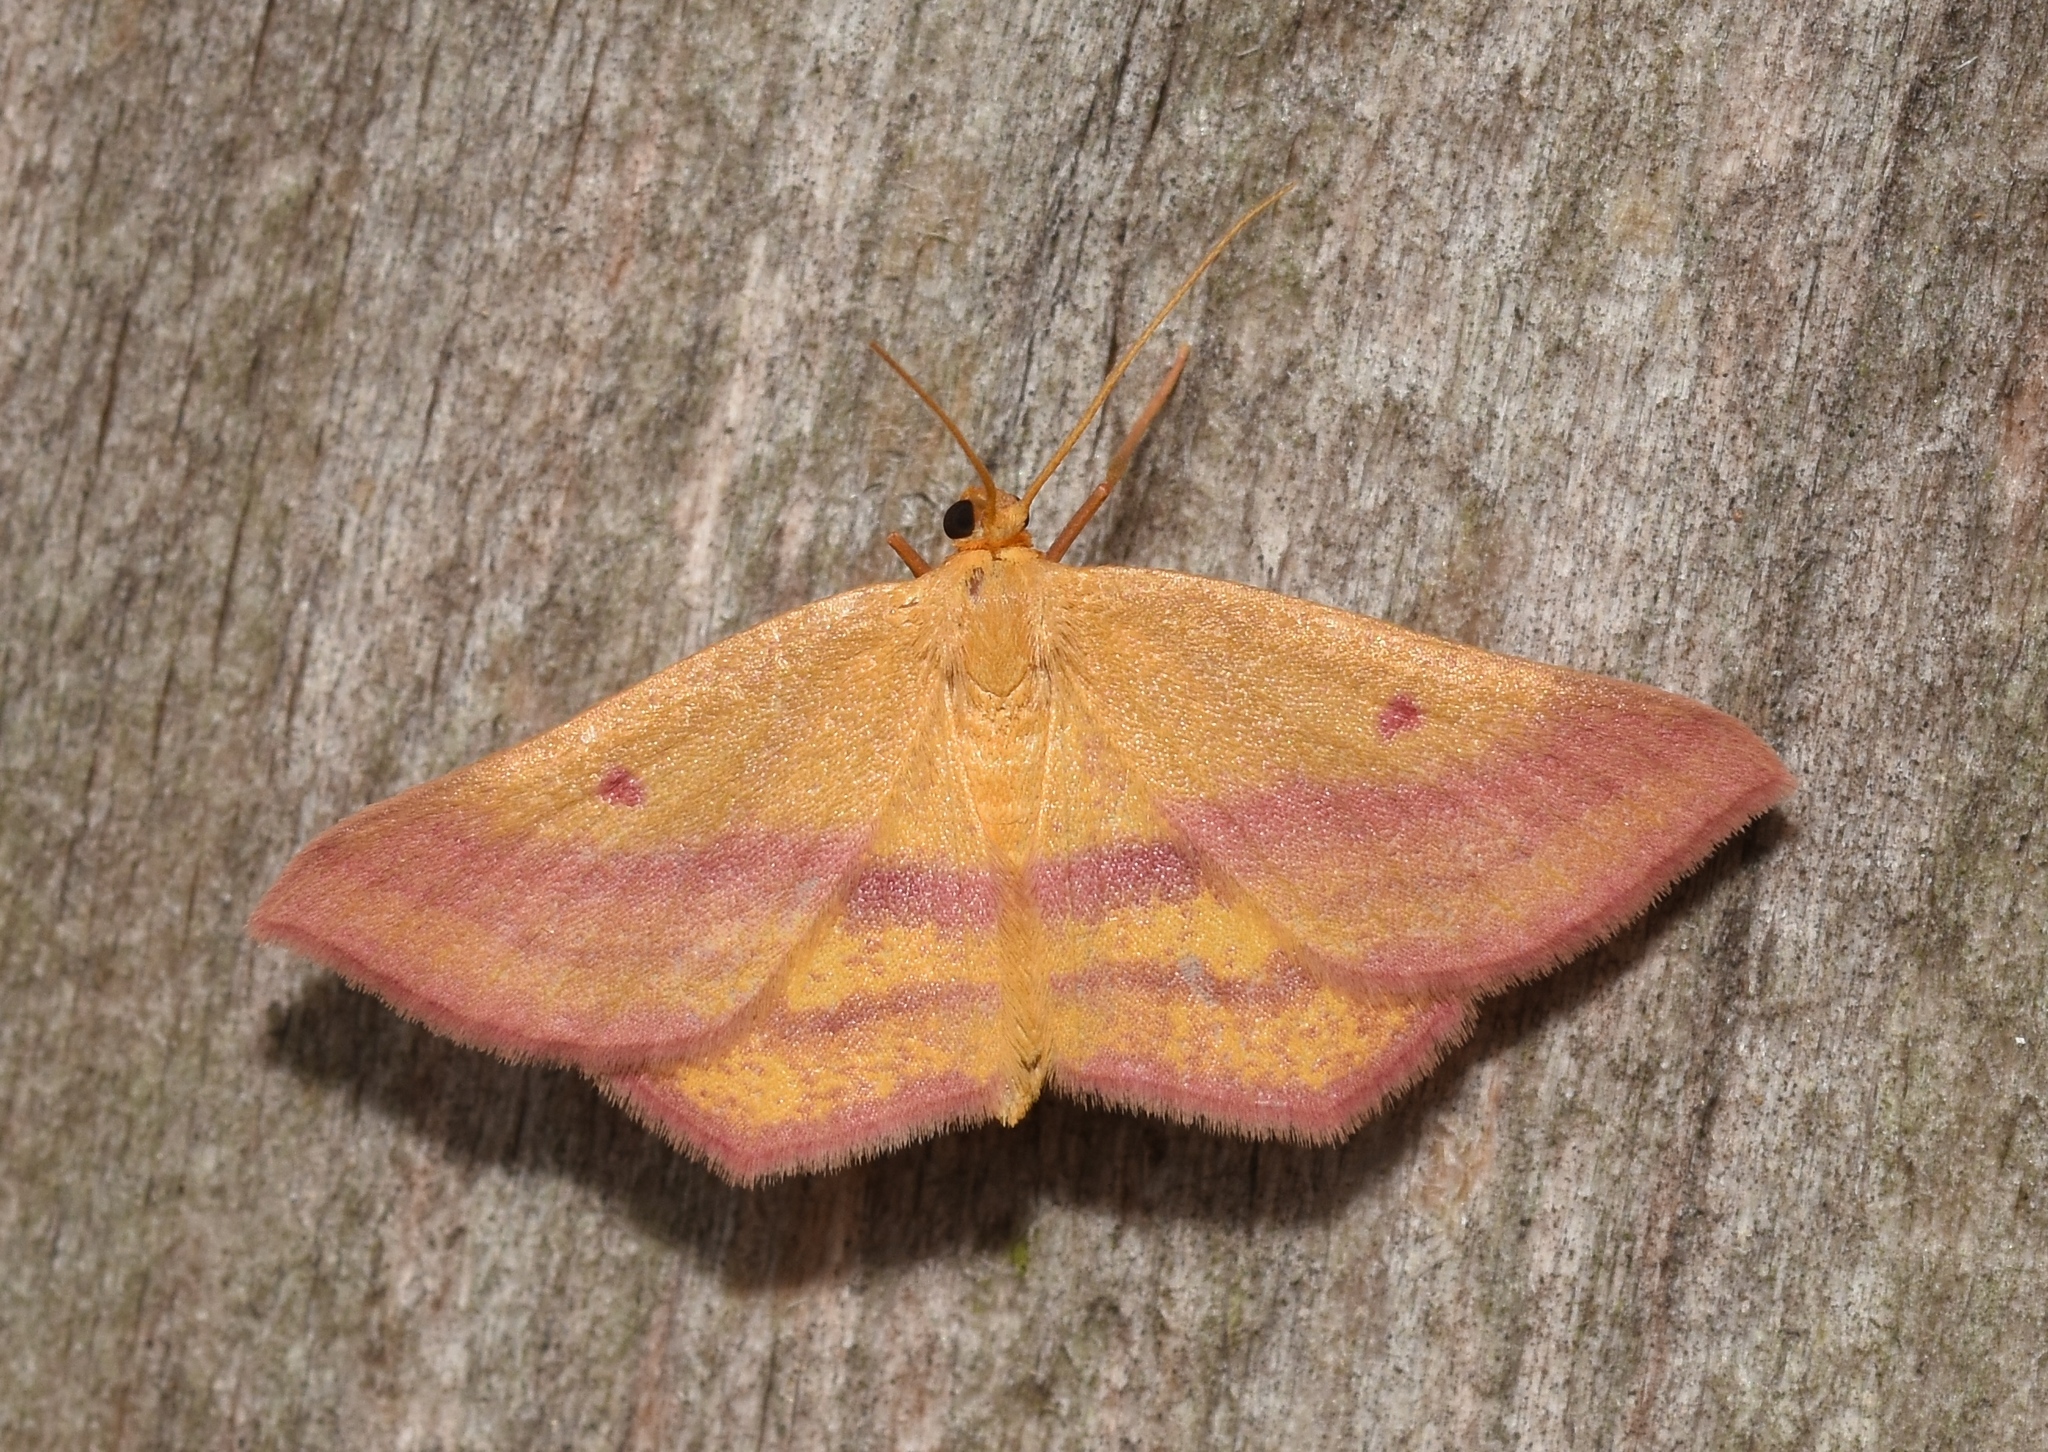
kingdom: Animalia
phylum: Arthropoda
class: Insecta
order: Lepidoptera
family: Geometridae
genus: Haematopis
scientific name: Haematopis grataria
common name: Chickweed geometer
